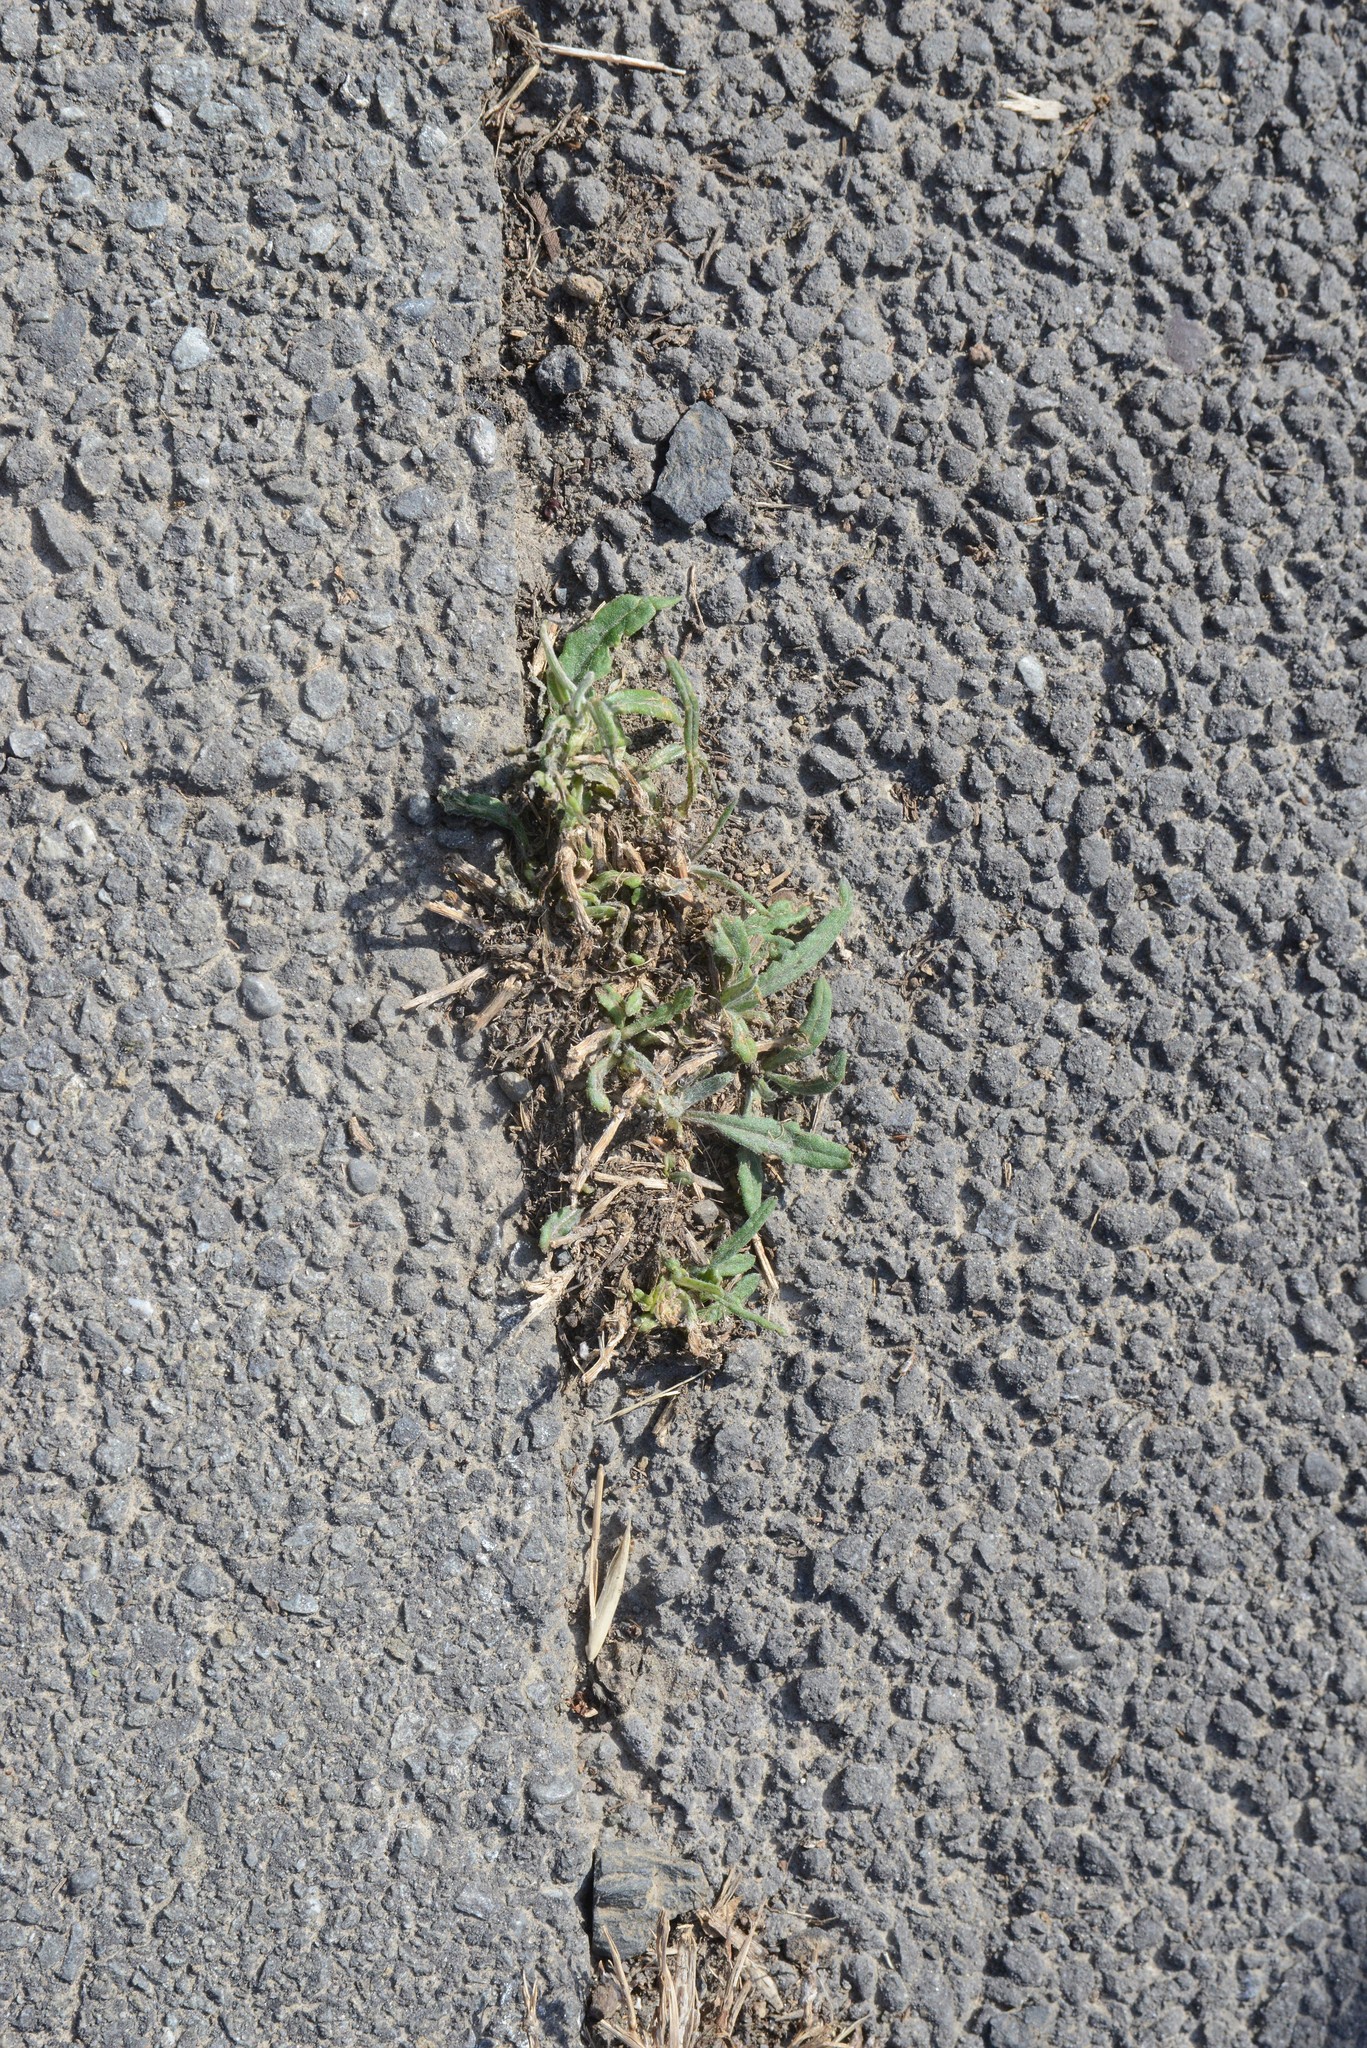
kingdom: Plantae
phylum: Tracheophyta
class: Magnoliopsida
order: Asterales
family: Asteraceae
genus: Senecio
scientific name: Senecio quadridentatus
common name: Cotton fireweed
